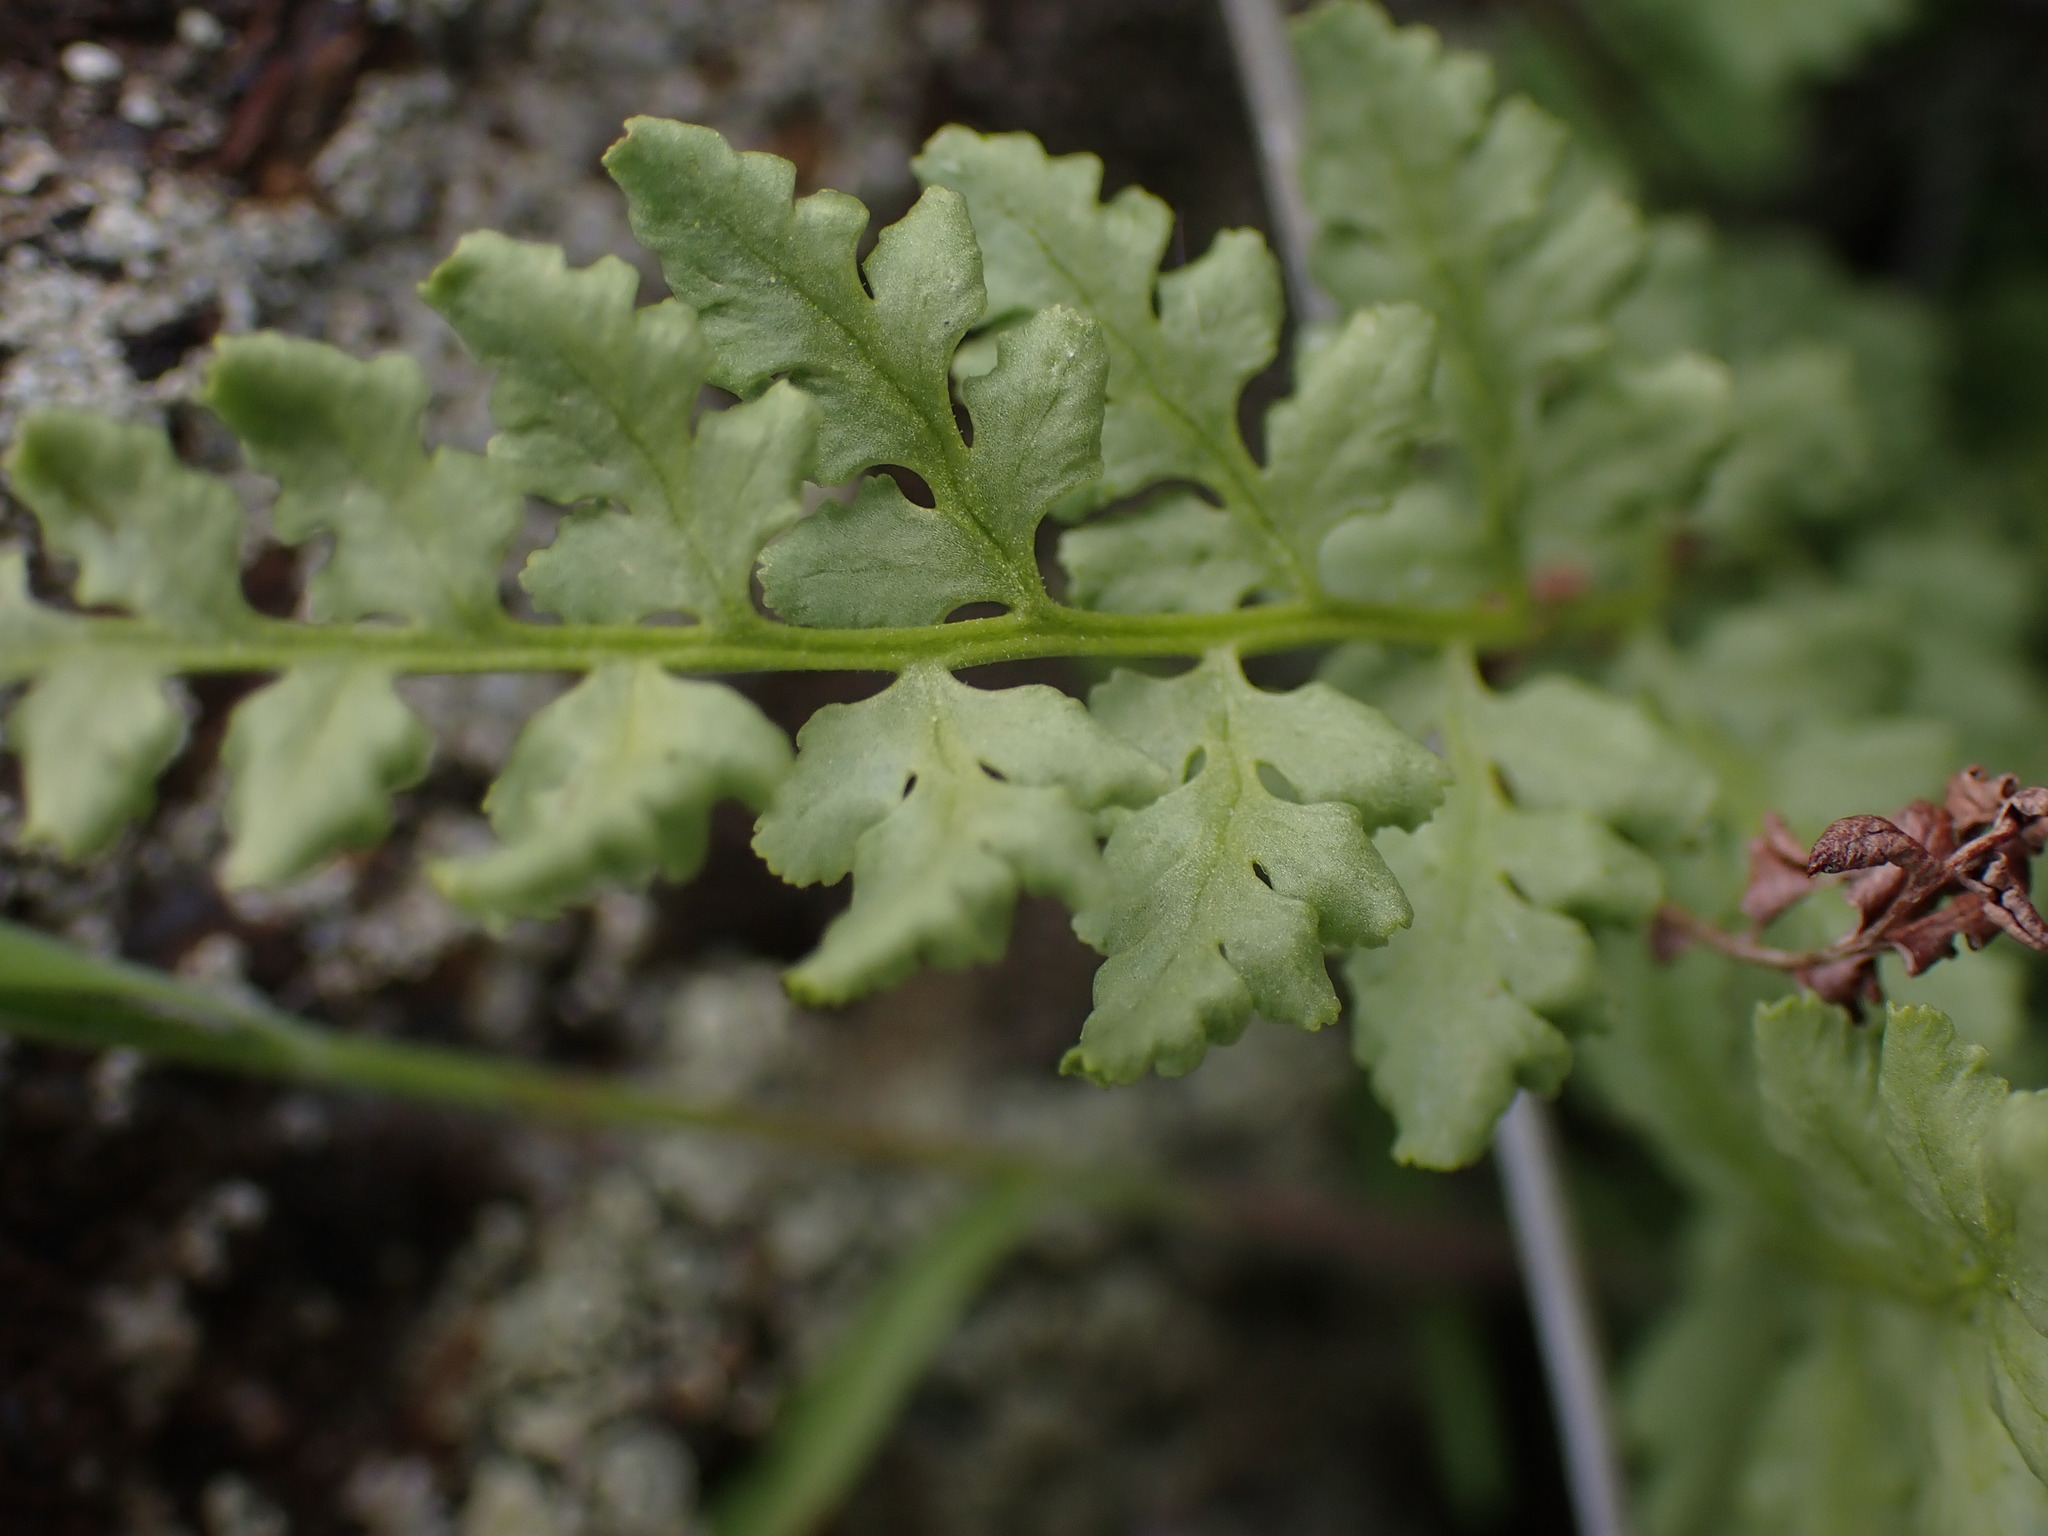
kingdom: Plantae
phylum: Tracheophyta
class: Polypodiopsida
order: Polypodiales
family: Woodsiaceae
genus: Physematium
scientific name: Physematium oreganum
